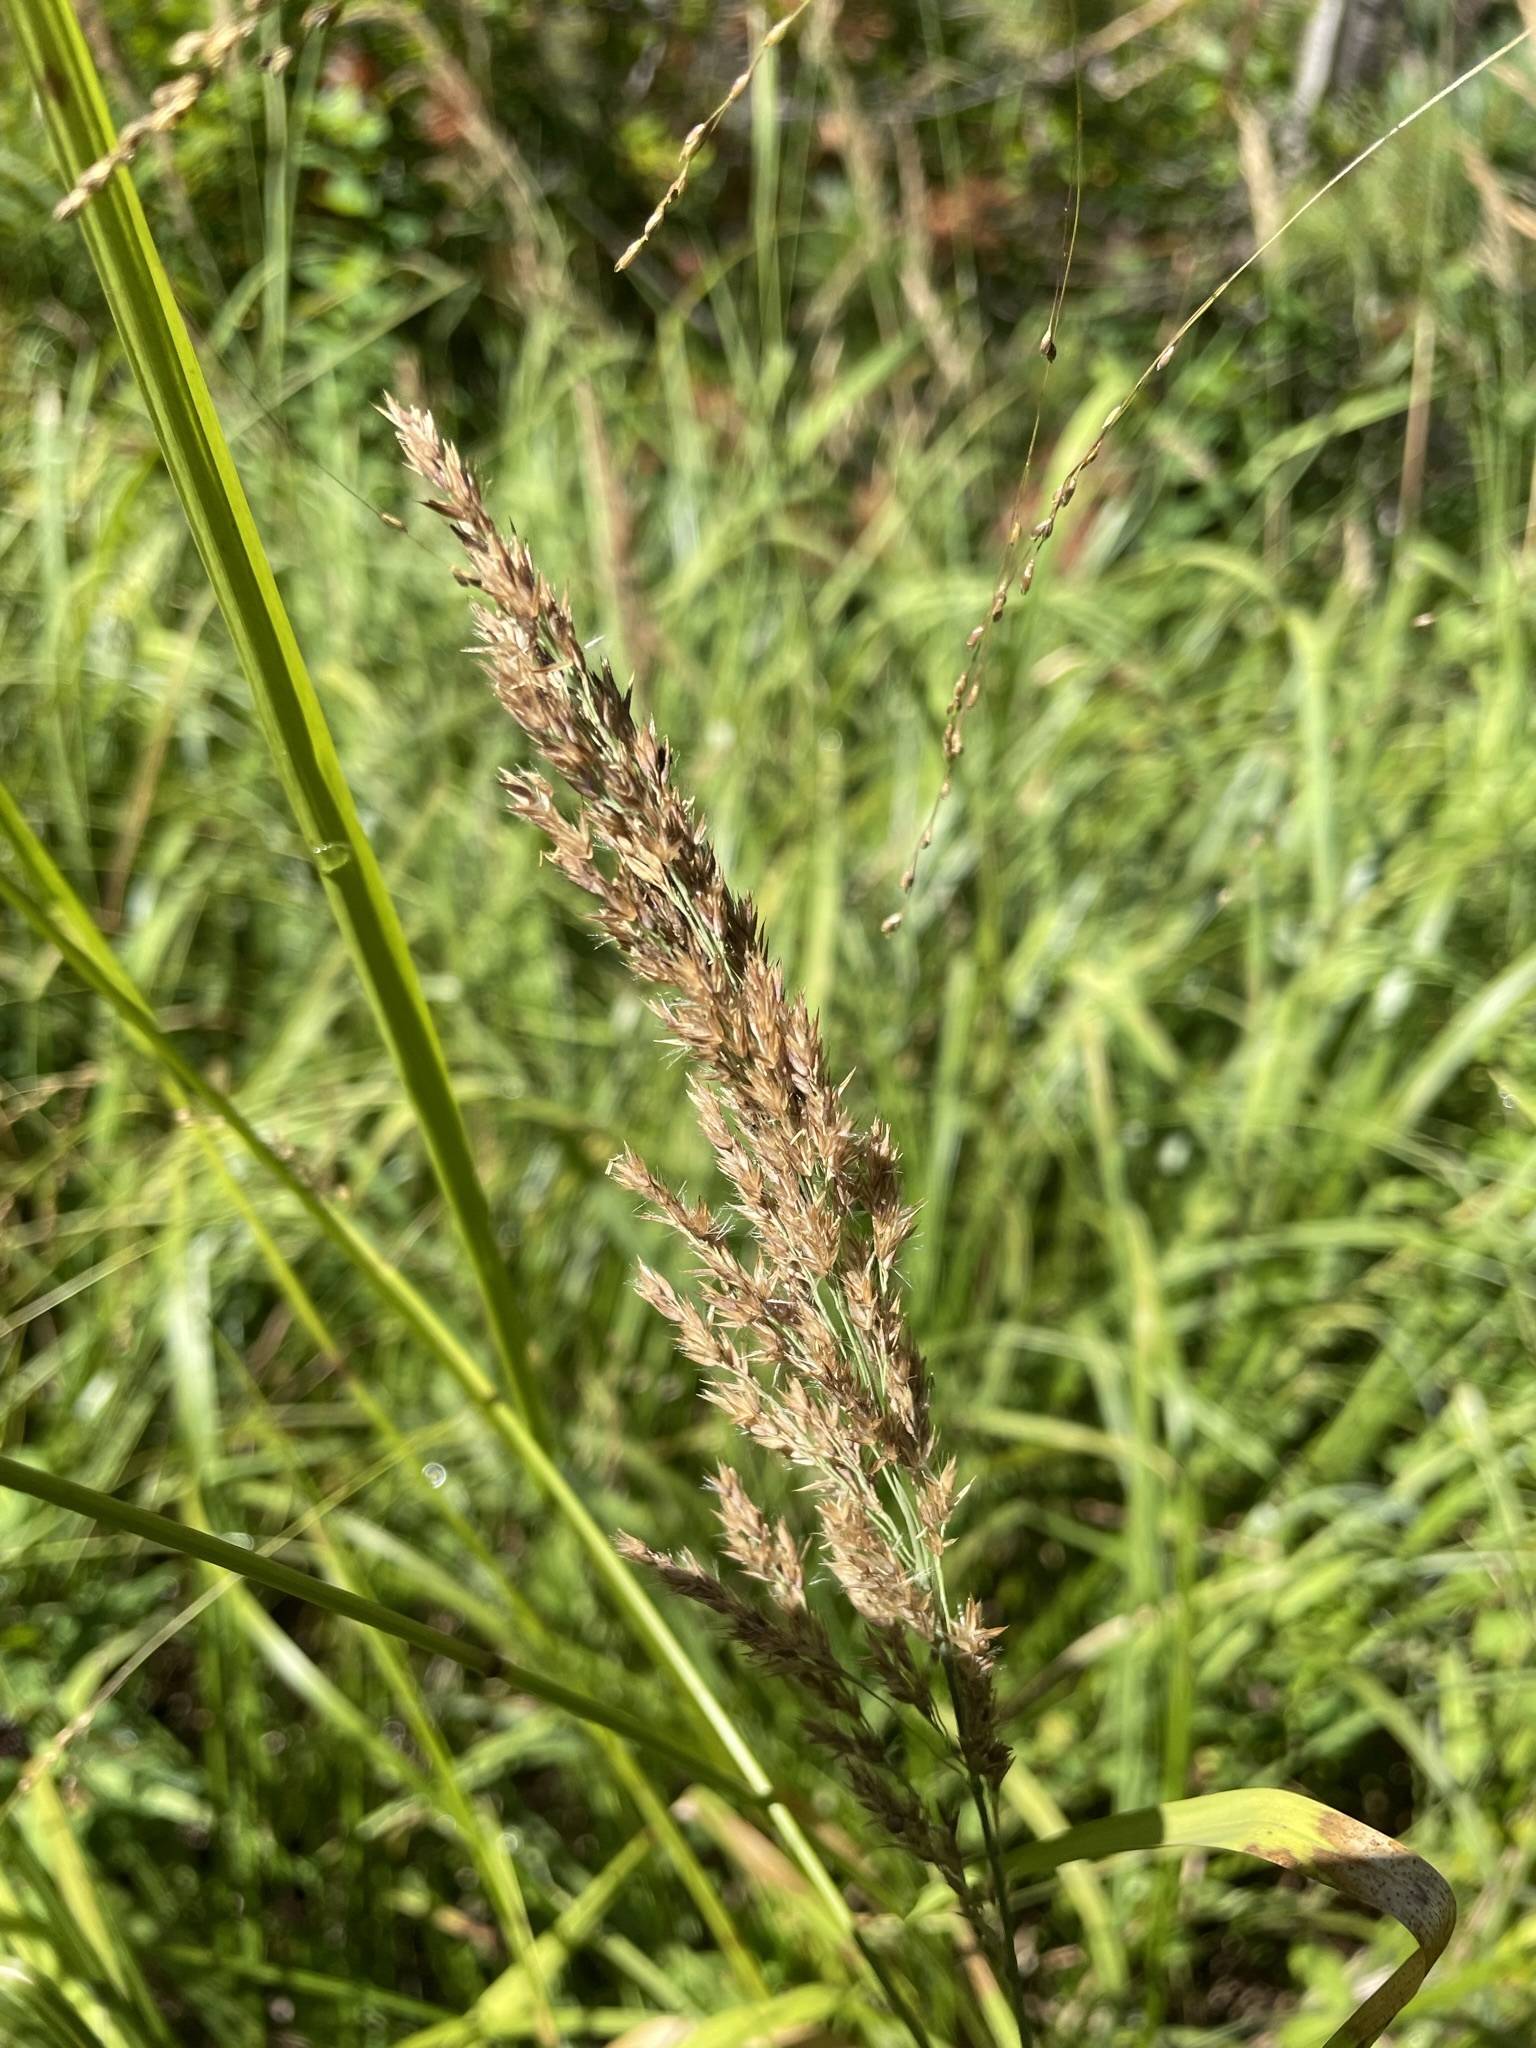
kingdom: Plantae
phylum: Tracheophyta
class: Liliopsida
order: Poales
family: Poaceae
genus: Calamagrostis
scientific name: Calamagrostis canadensis
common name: Canada bluejoint
